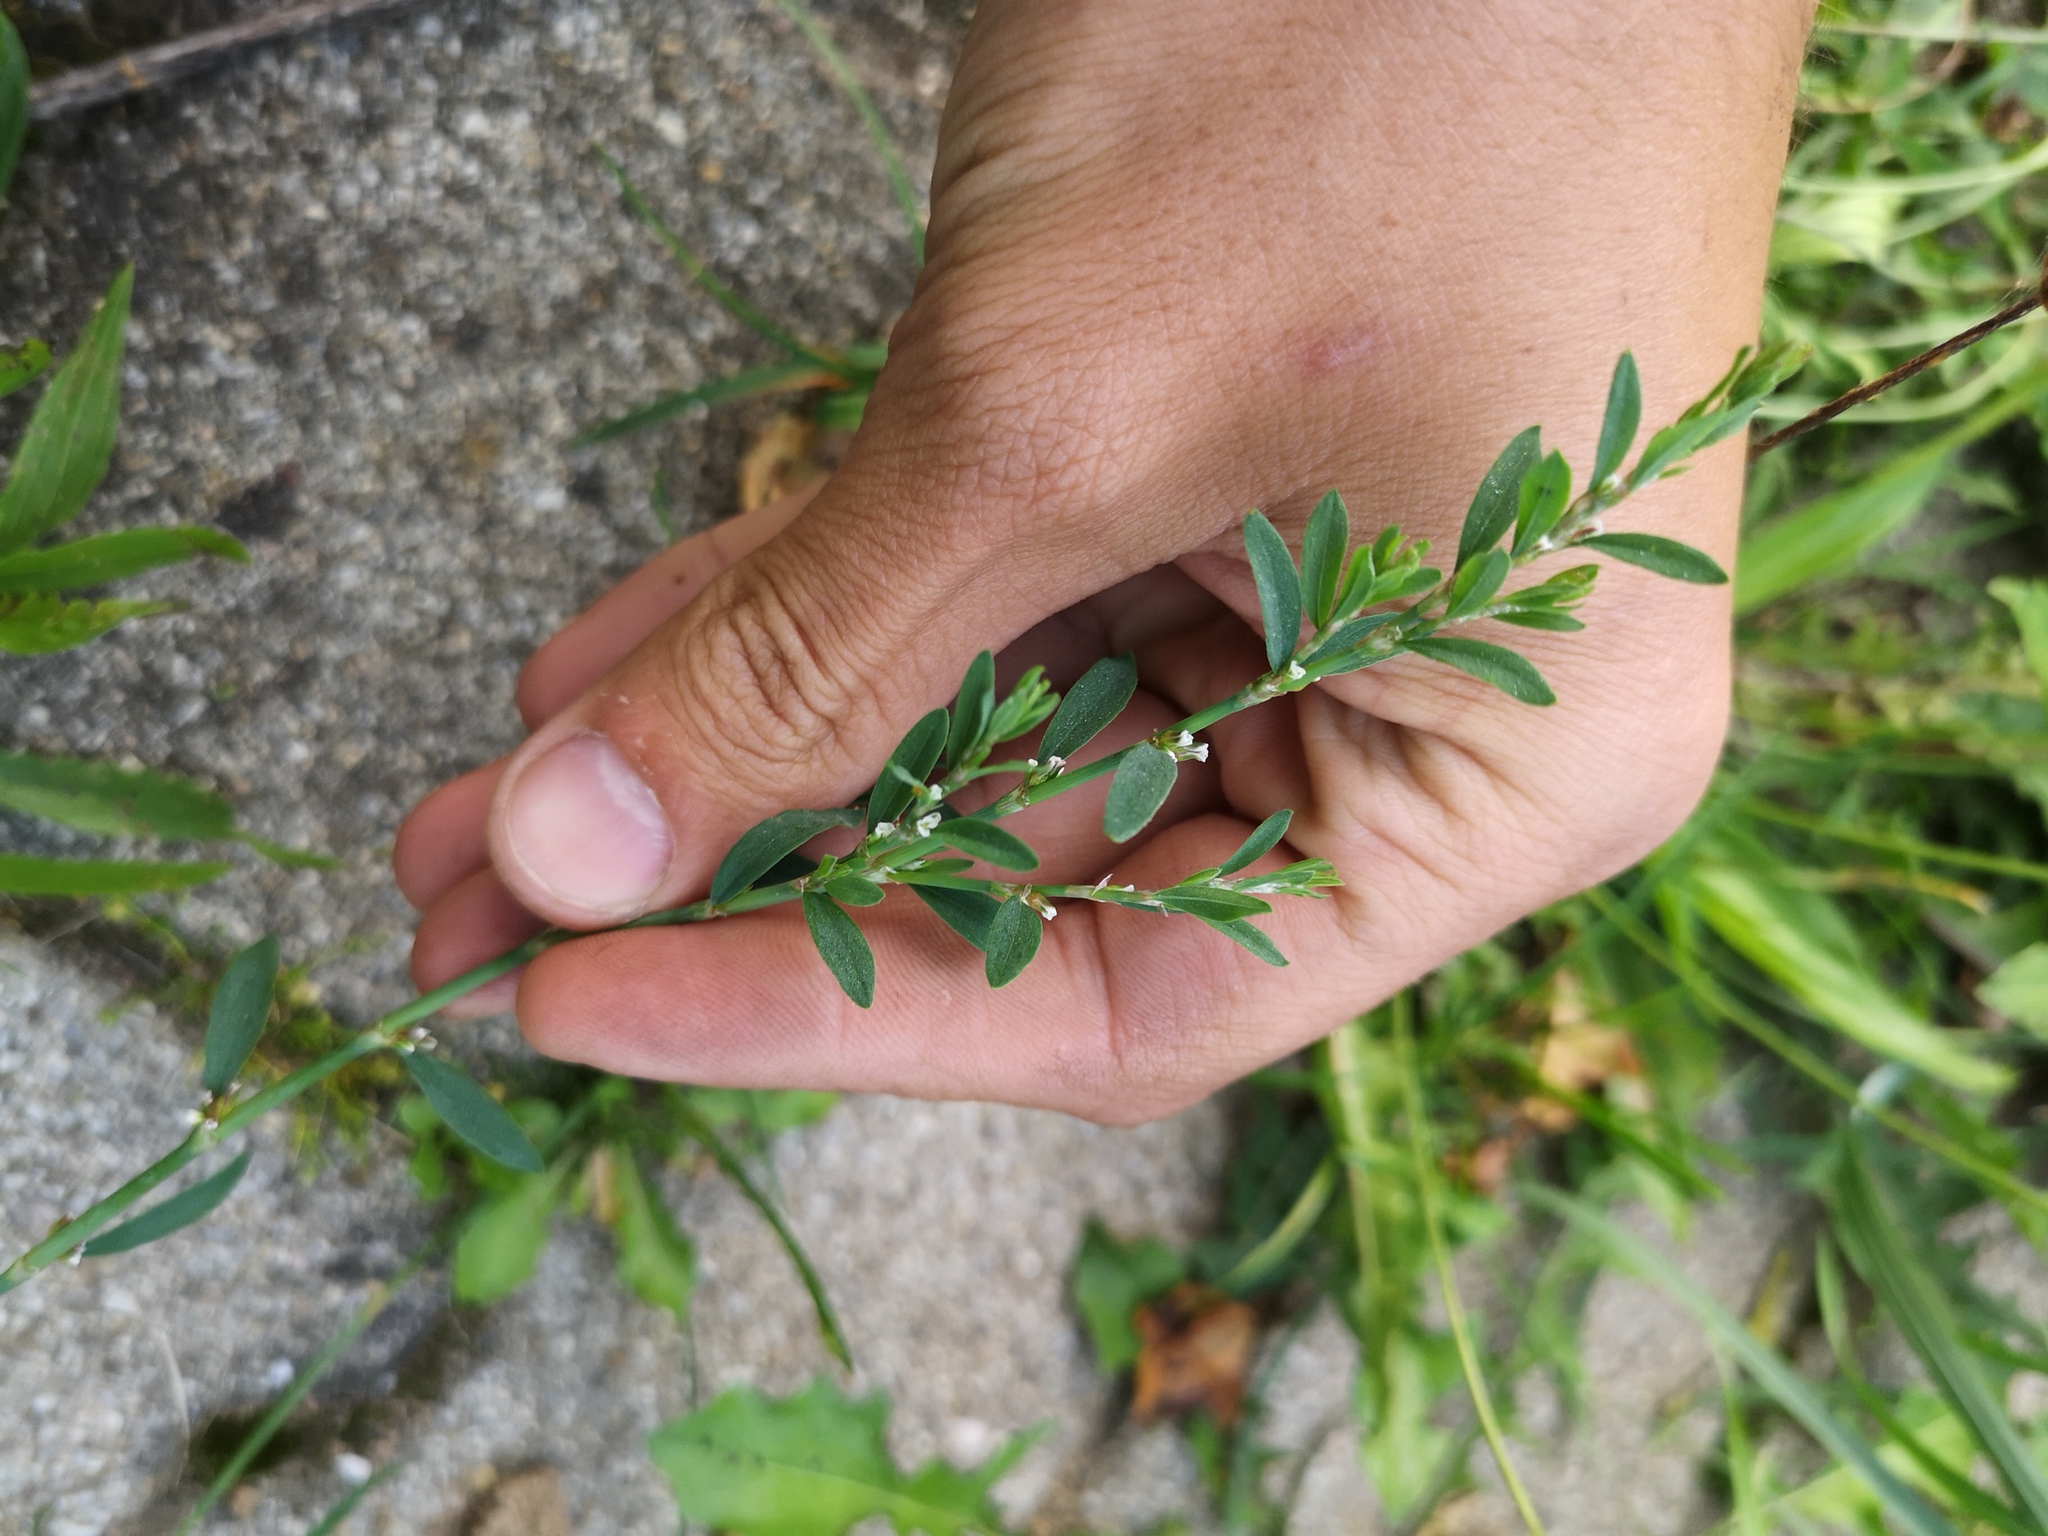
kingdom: Plantae
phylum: Tracheophyta
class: Magnoliopsida
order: Caryophyllales
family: Polygonaceae
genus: Polygonum
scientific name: Polygonum aviculare
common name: Prostrate knotweed
